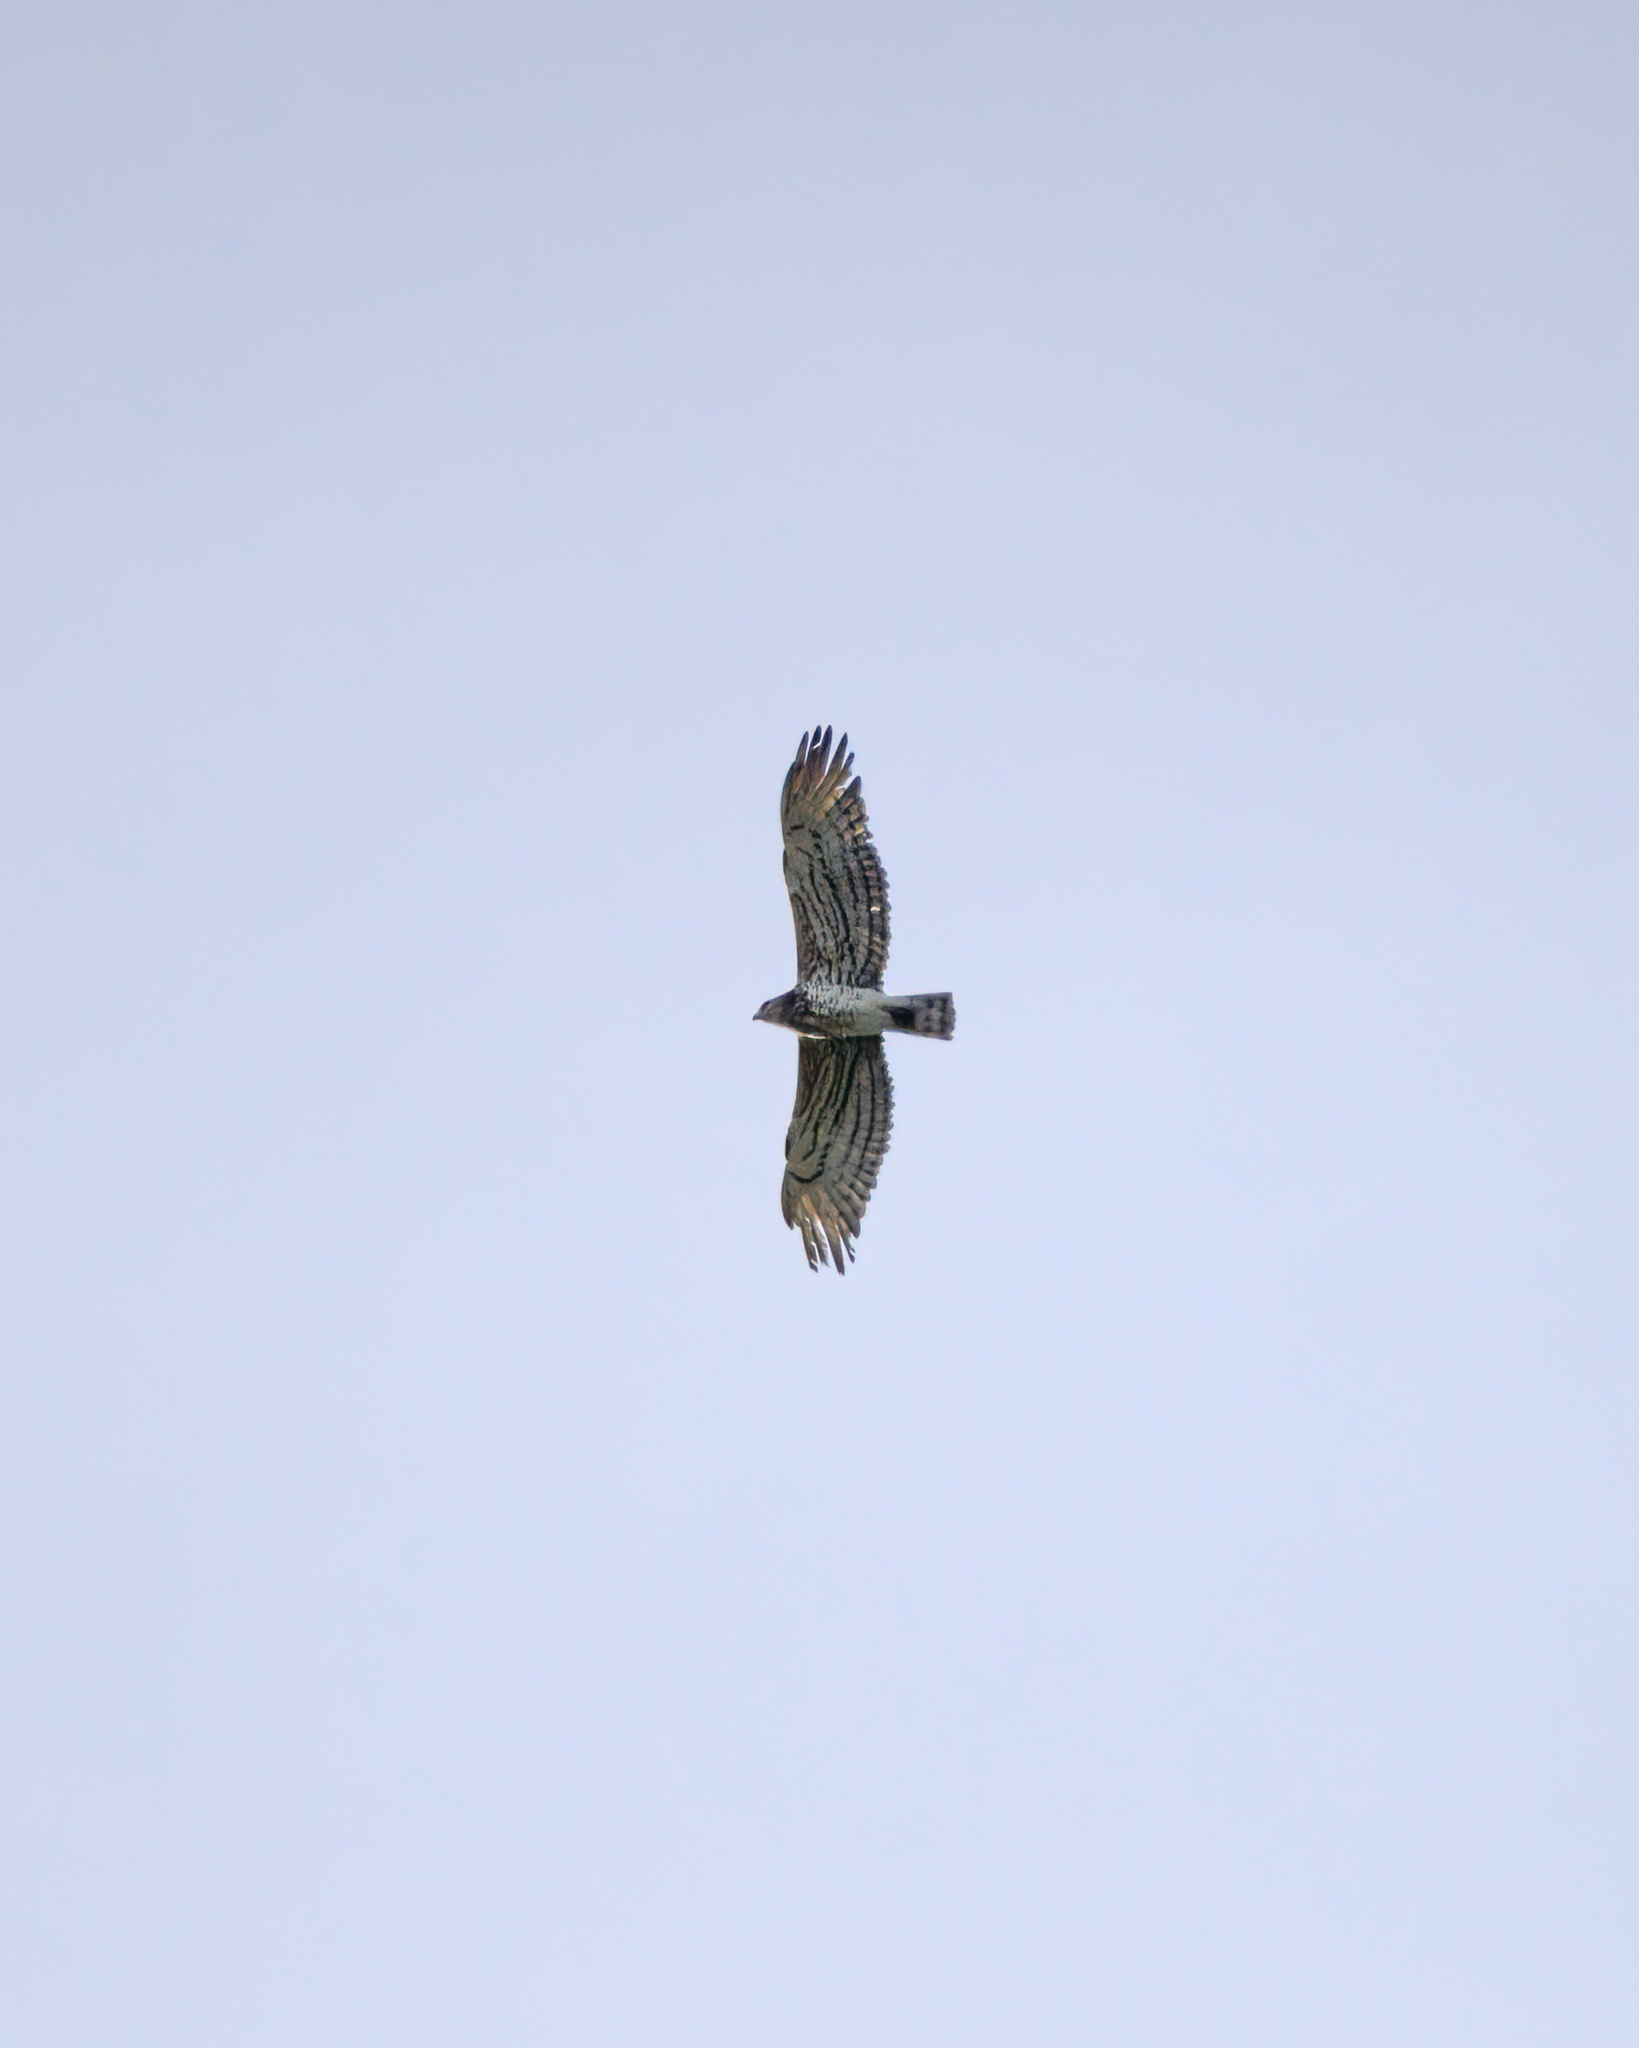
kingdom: Animalia
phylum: Chordata
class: Aves
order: Accipitriformes
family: Accipitridae
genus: Circaetus
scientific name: Circaetus gallicus
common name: Short-toed snake eagle
